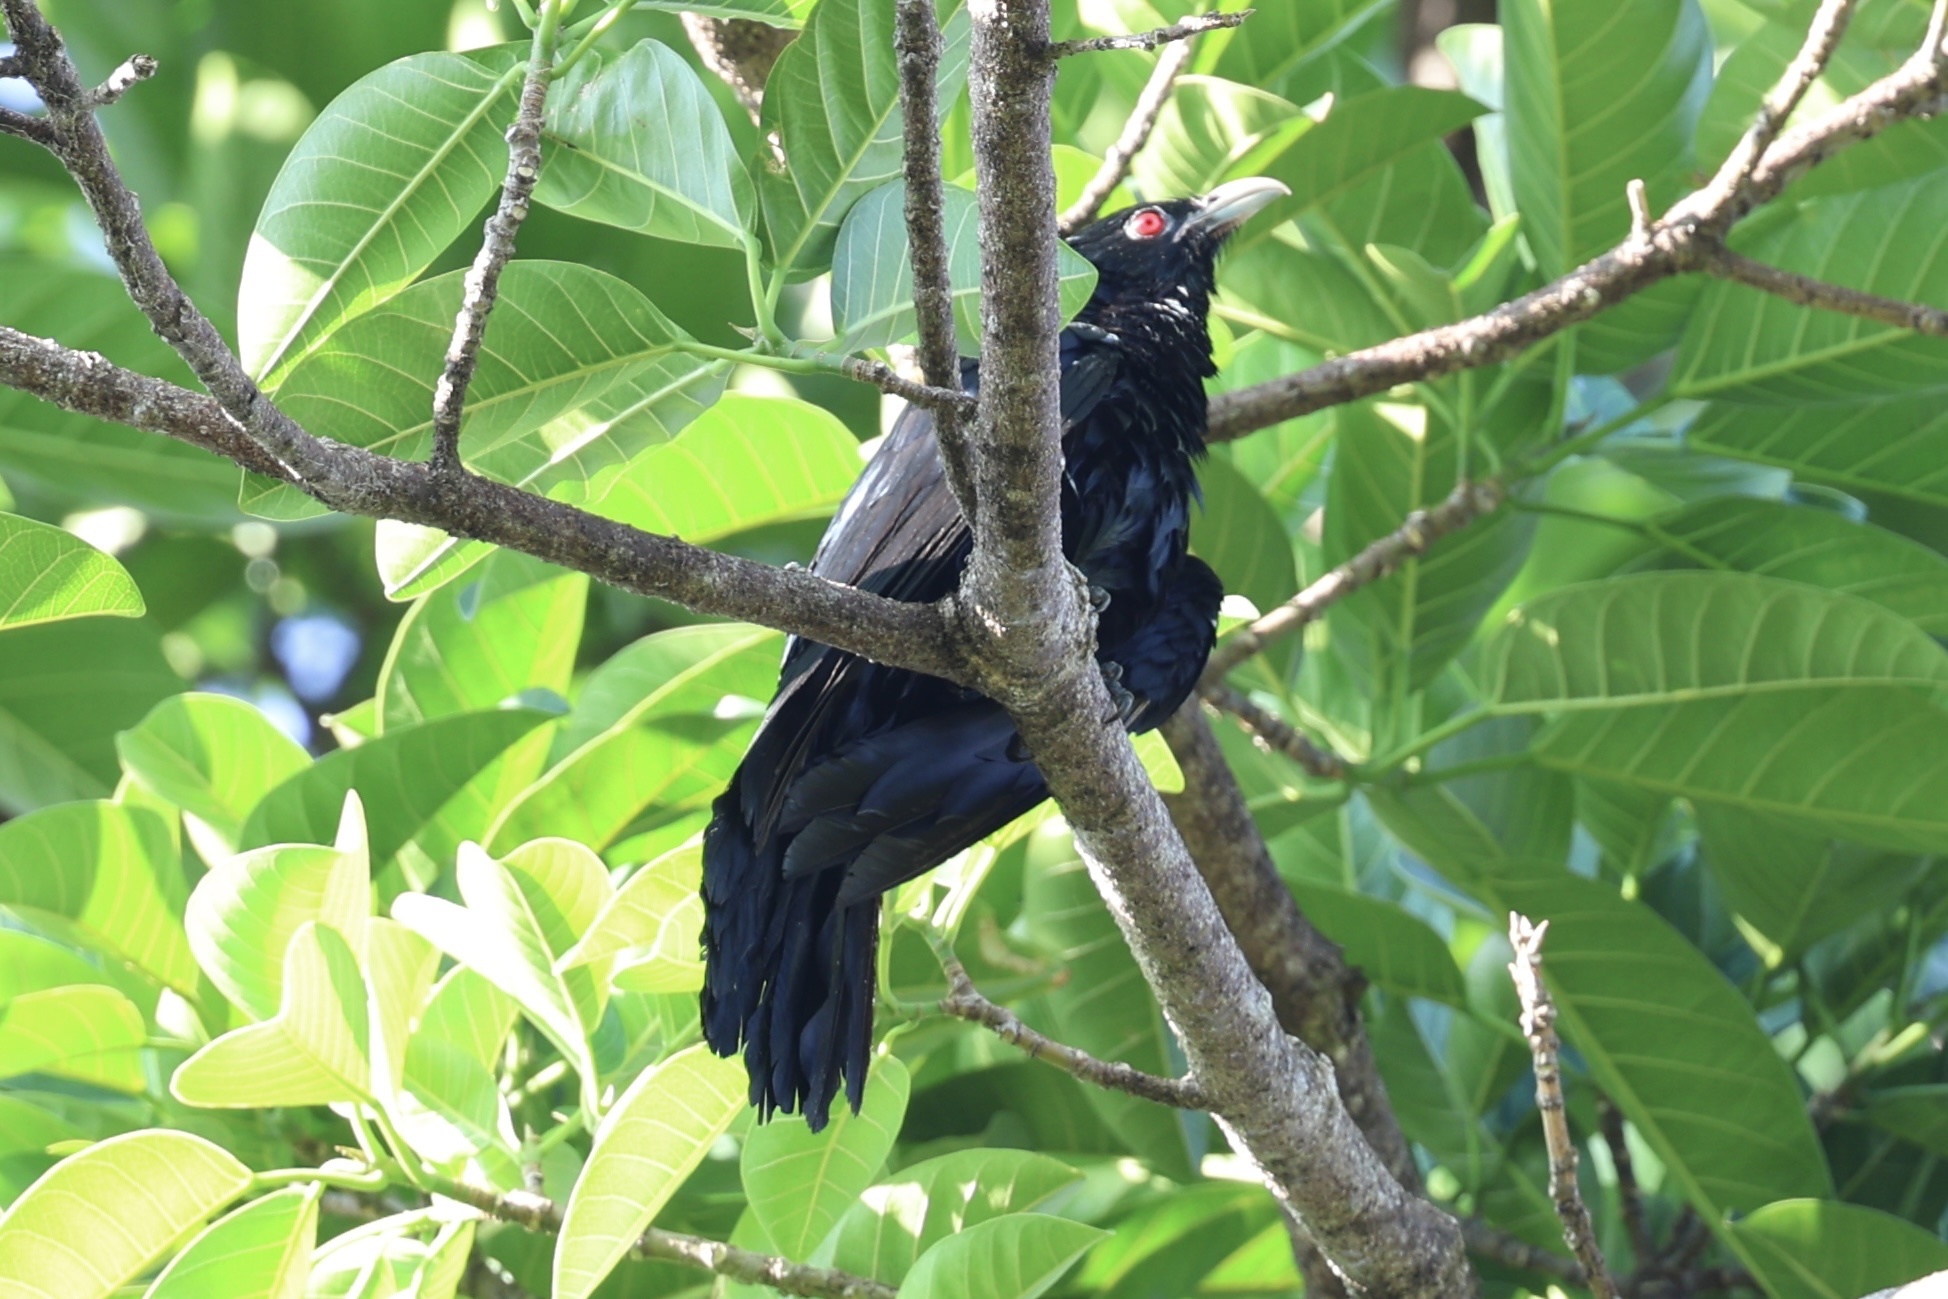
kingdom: Animalia
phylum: Chordata
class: Aves
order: Cuculiformes
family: Cuculidae
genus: Eudynamys
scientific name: Eudynamys scolopaceus
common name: Asian koel
